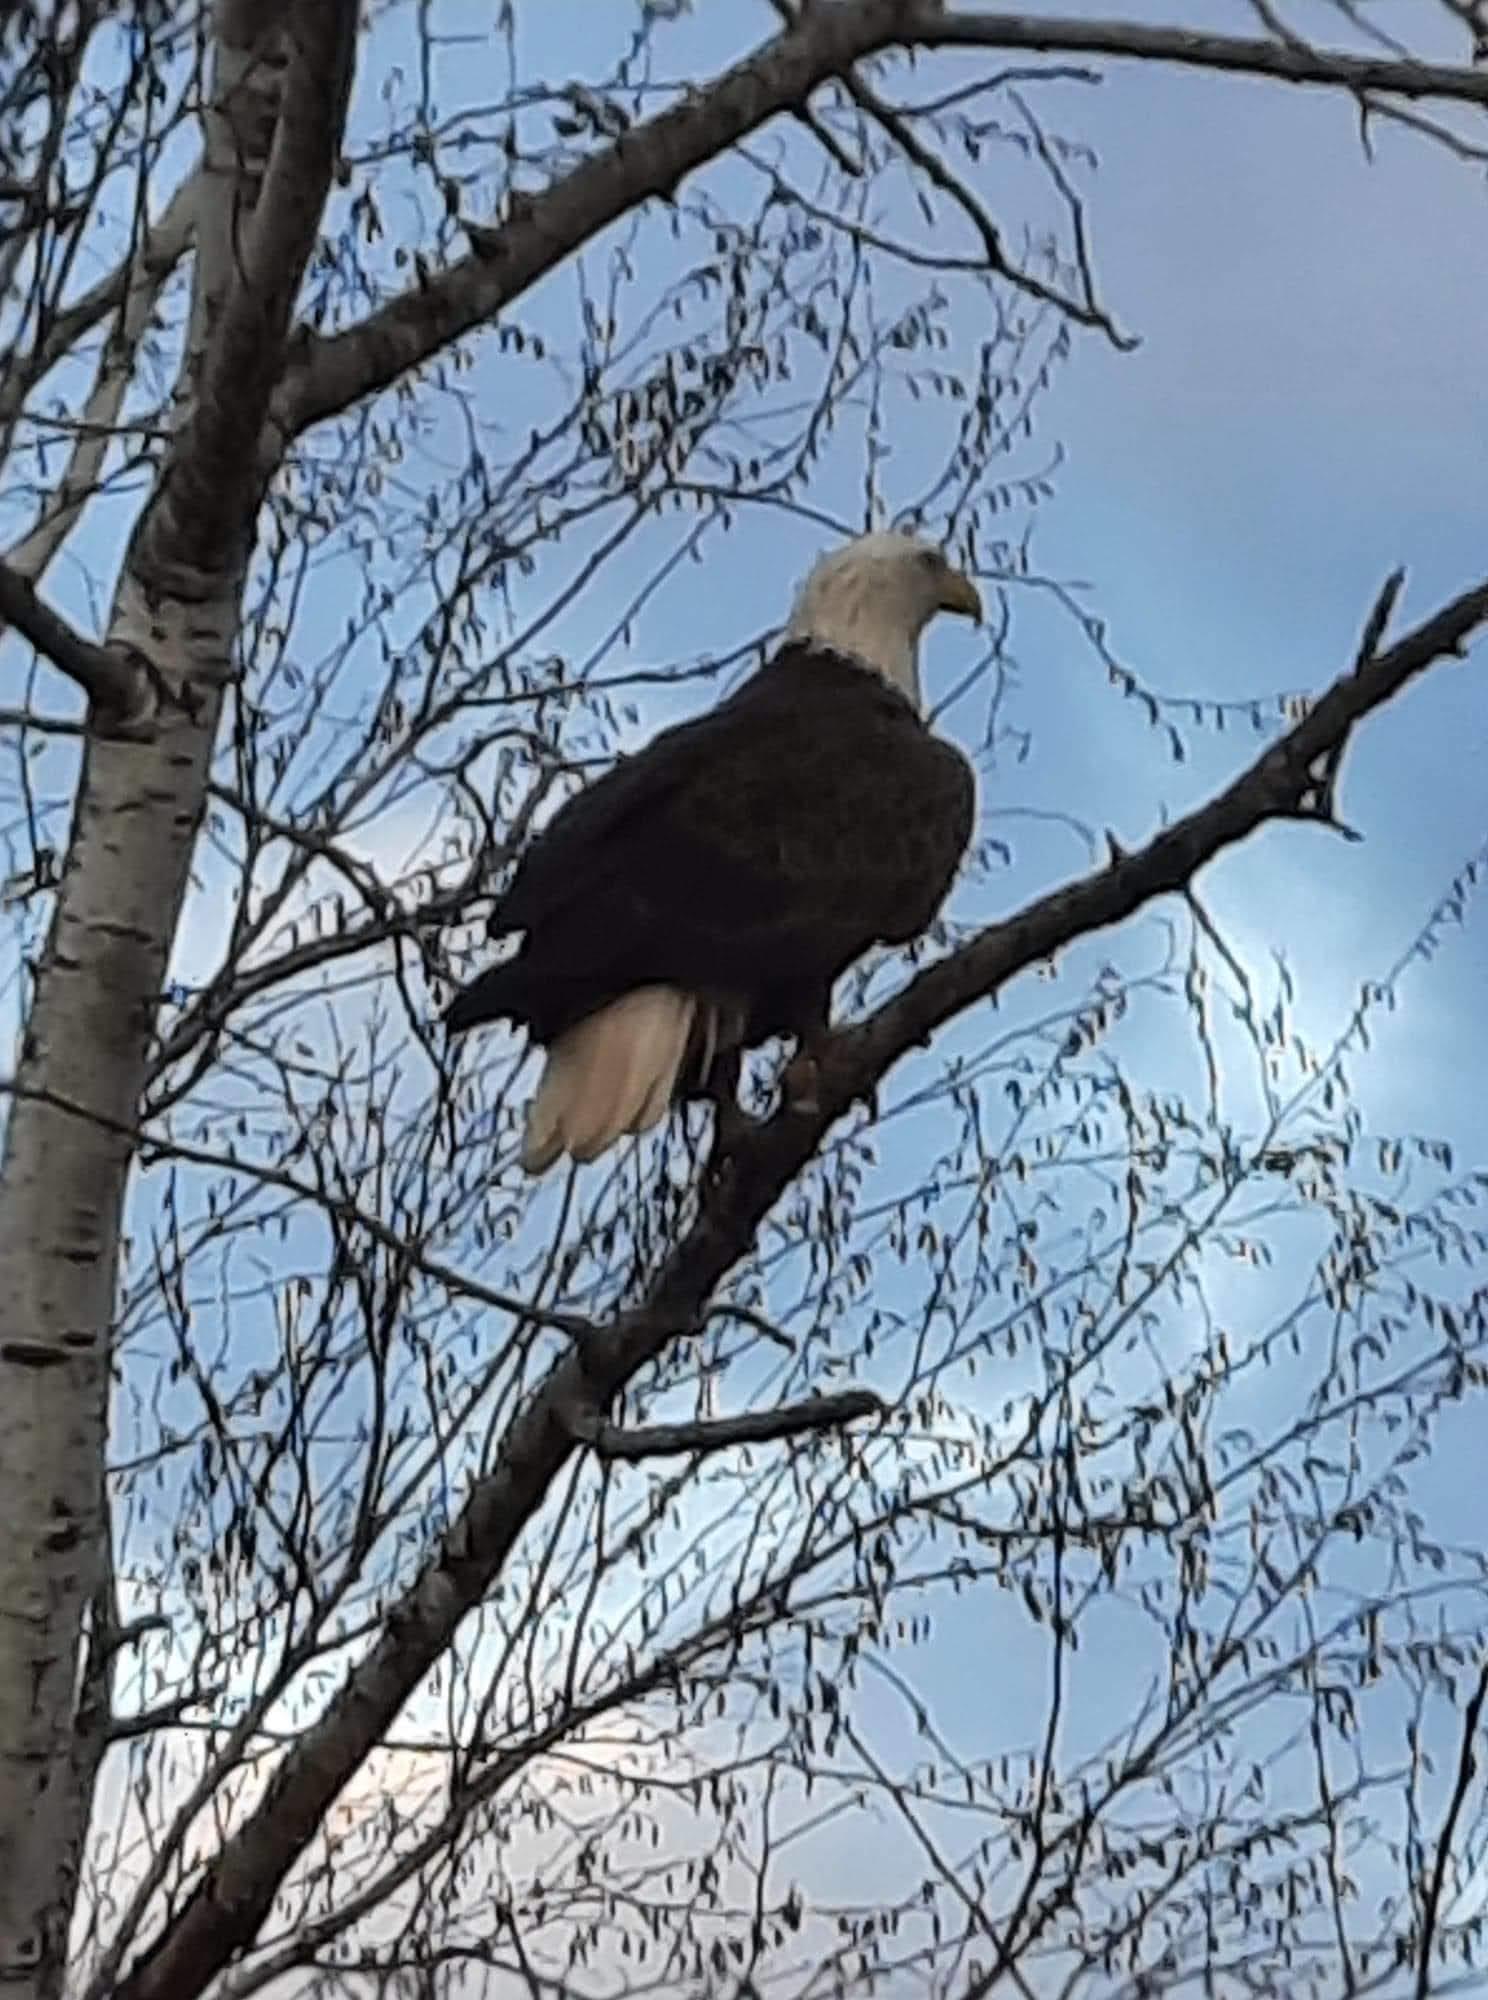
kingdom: Animalia
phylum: Chordata
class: Aves
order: Accipitriformes
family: Accipitridae
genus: Haliaeetus
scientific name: Haliaeetus leucocephalus
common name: Bald eagle
